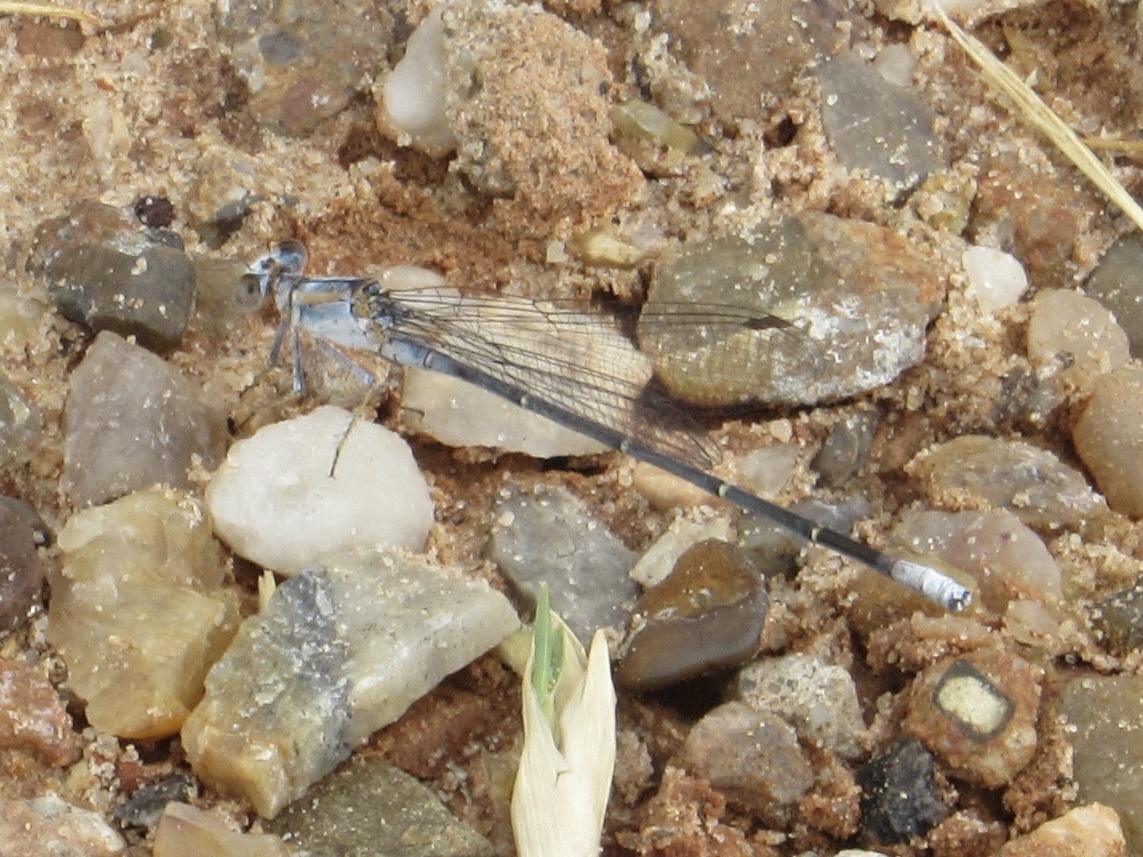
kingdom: Animalia
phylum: Arthropoda
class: Insecta
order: Odonata
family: Coenagrionidae
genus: Argia
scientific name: Argia moesta
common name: Powdered dancer
